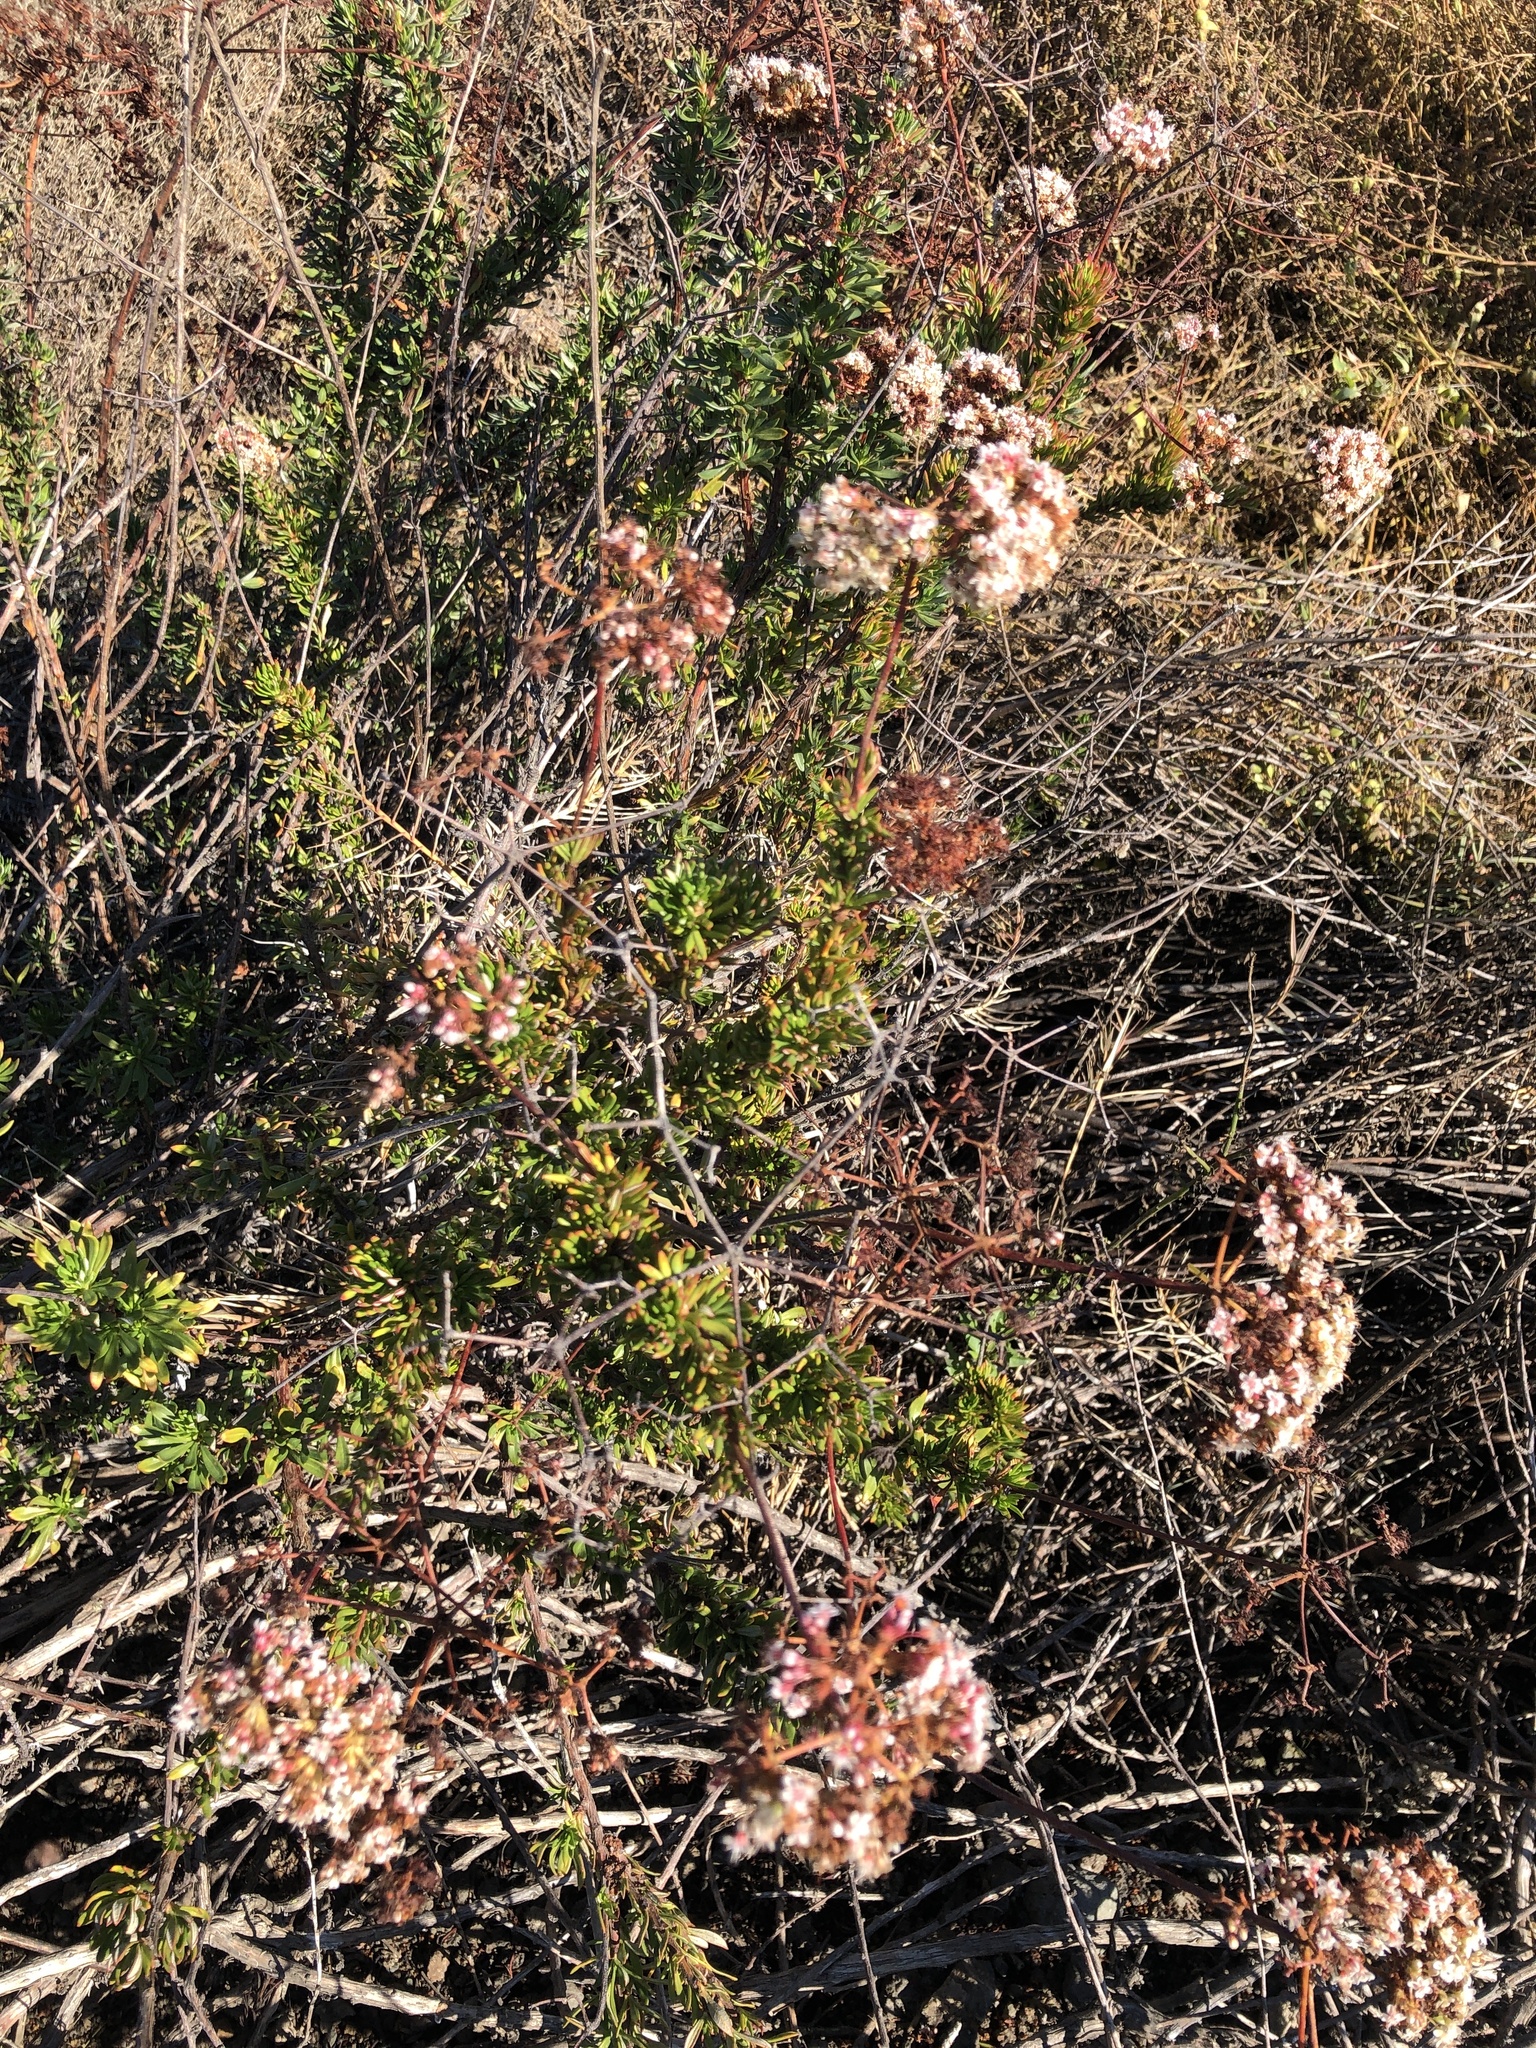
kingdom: Plantae
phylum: Tracheophyta
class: Magnoliopsida
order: Caryophyllales
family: Polygonaceae
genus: Eriogonum
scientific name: Eriogonum fasciculatum
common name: California wild buckwheat
